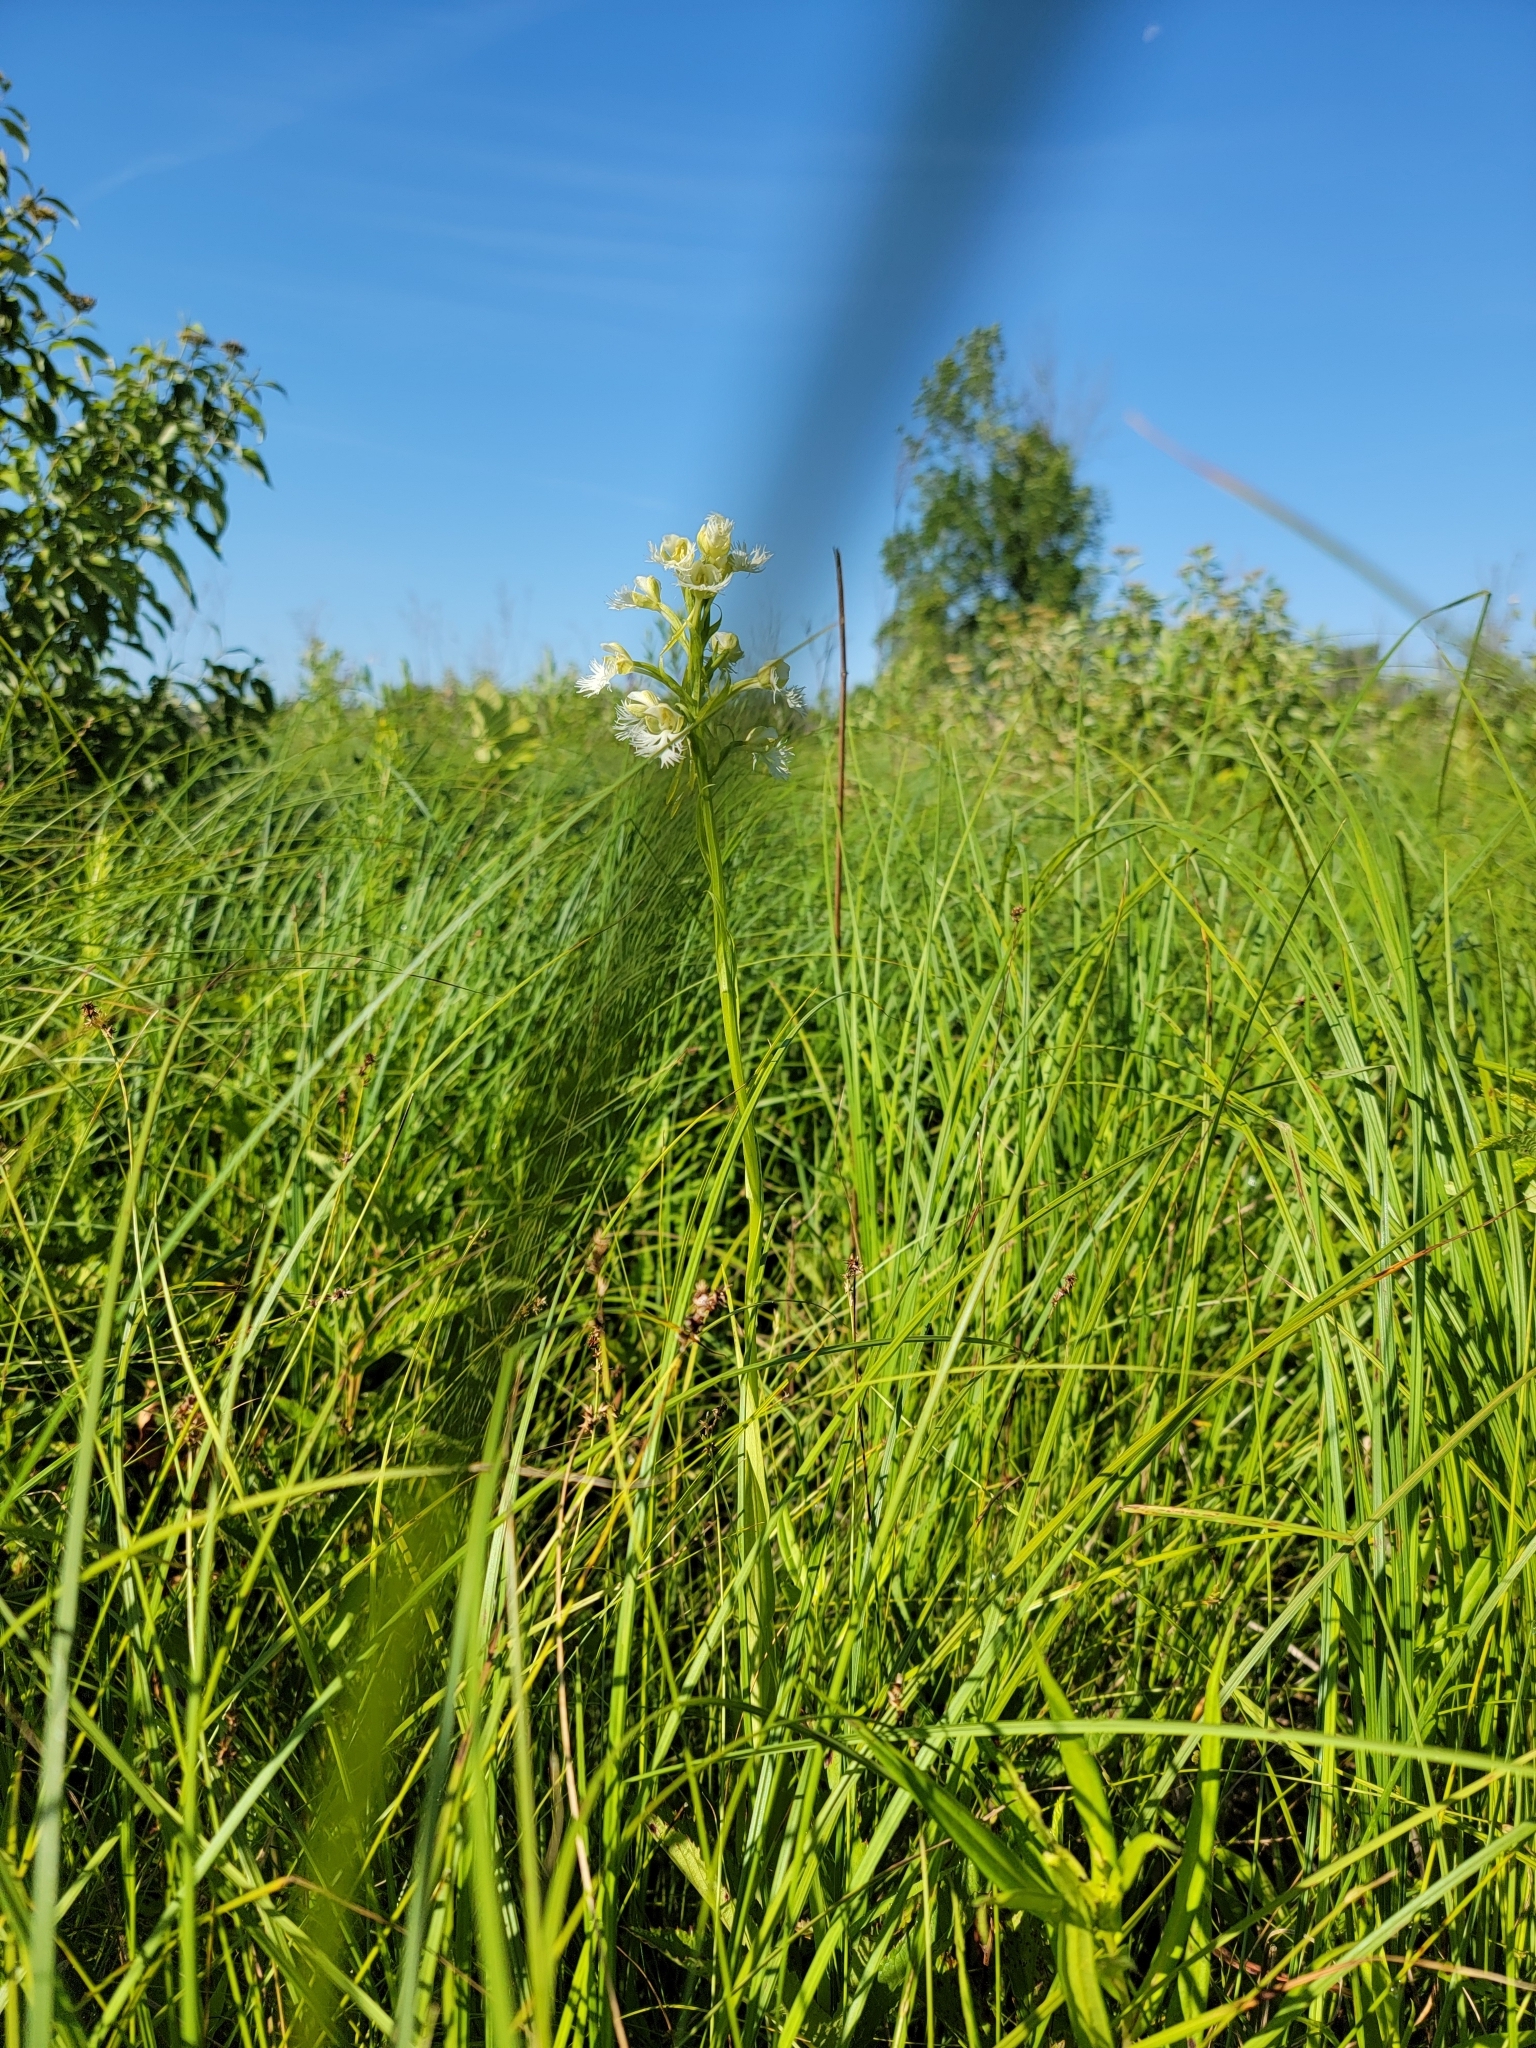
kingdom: Plantae
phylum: Tracheophyta
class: Liliopsida
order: Asparagales
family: Orchidaceae
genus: Platanthera
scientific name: Platanthera leucophaea
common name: Eastern prairie white-fringed orchid
